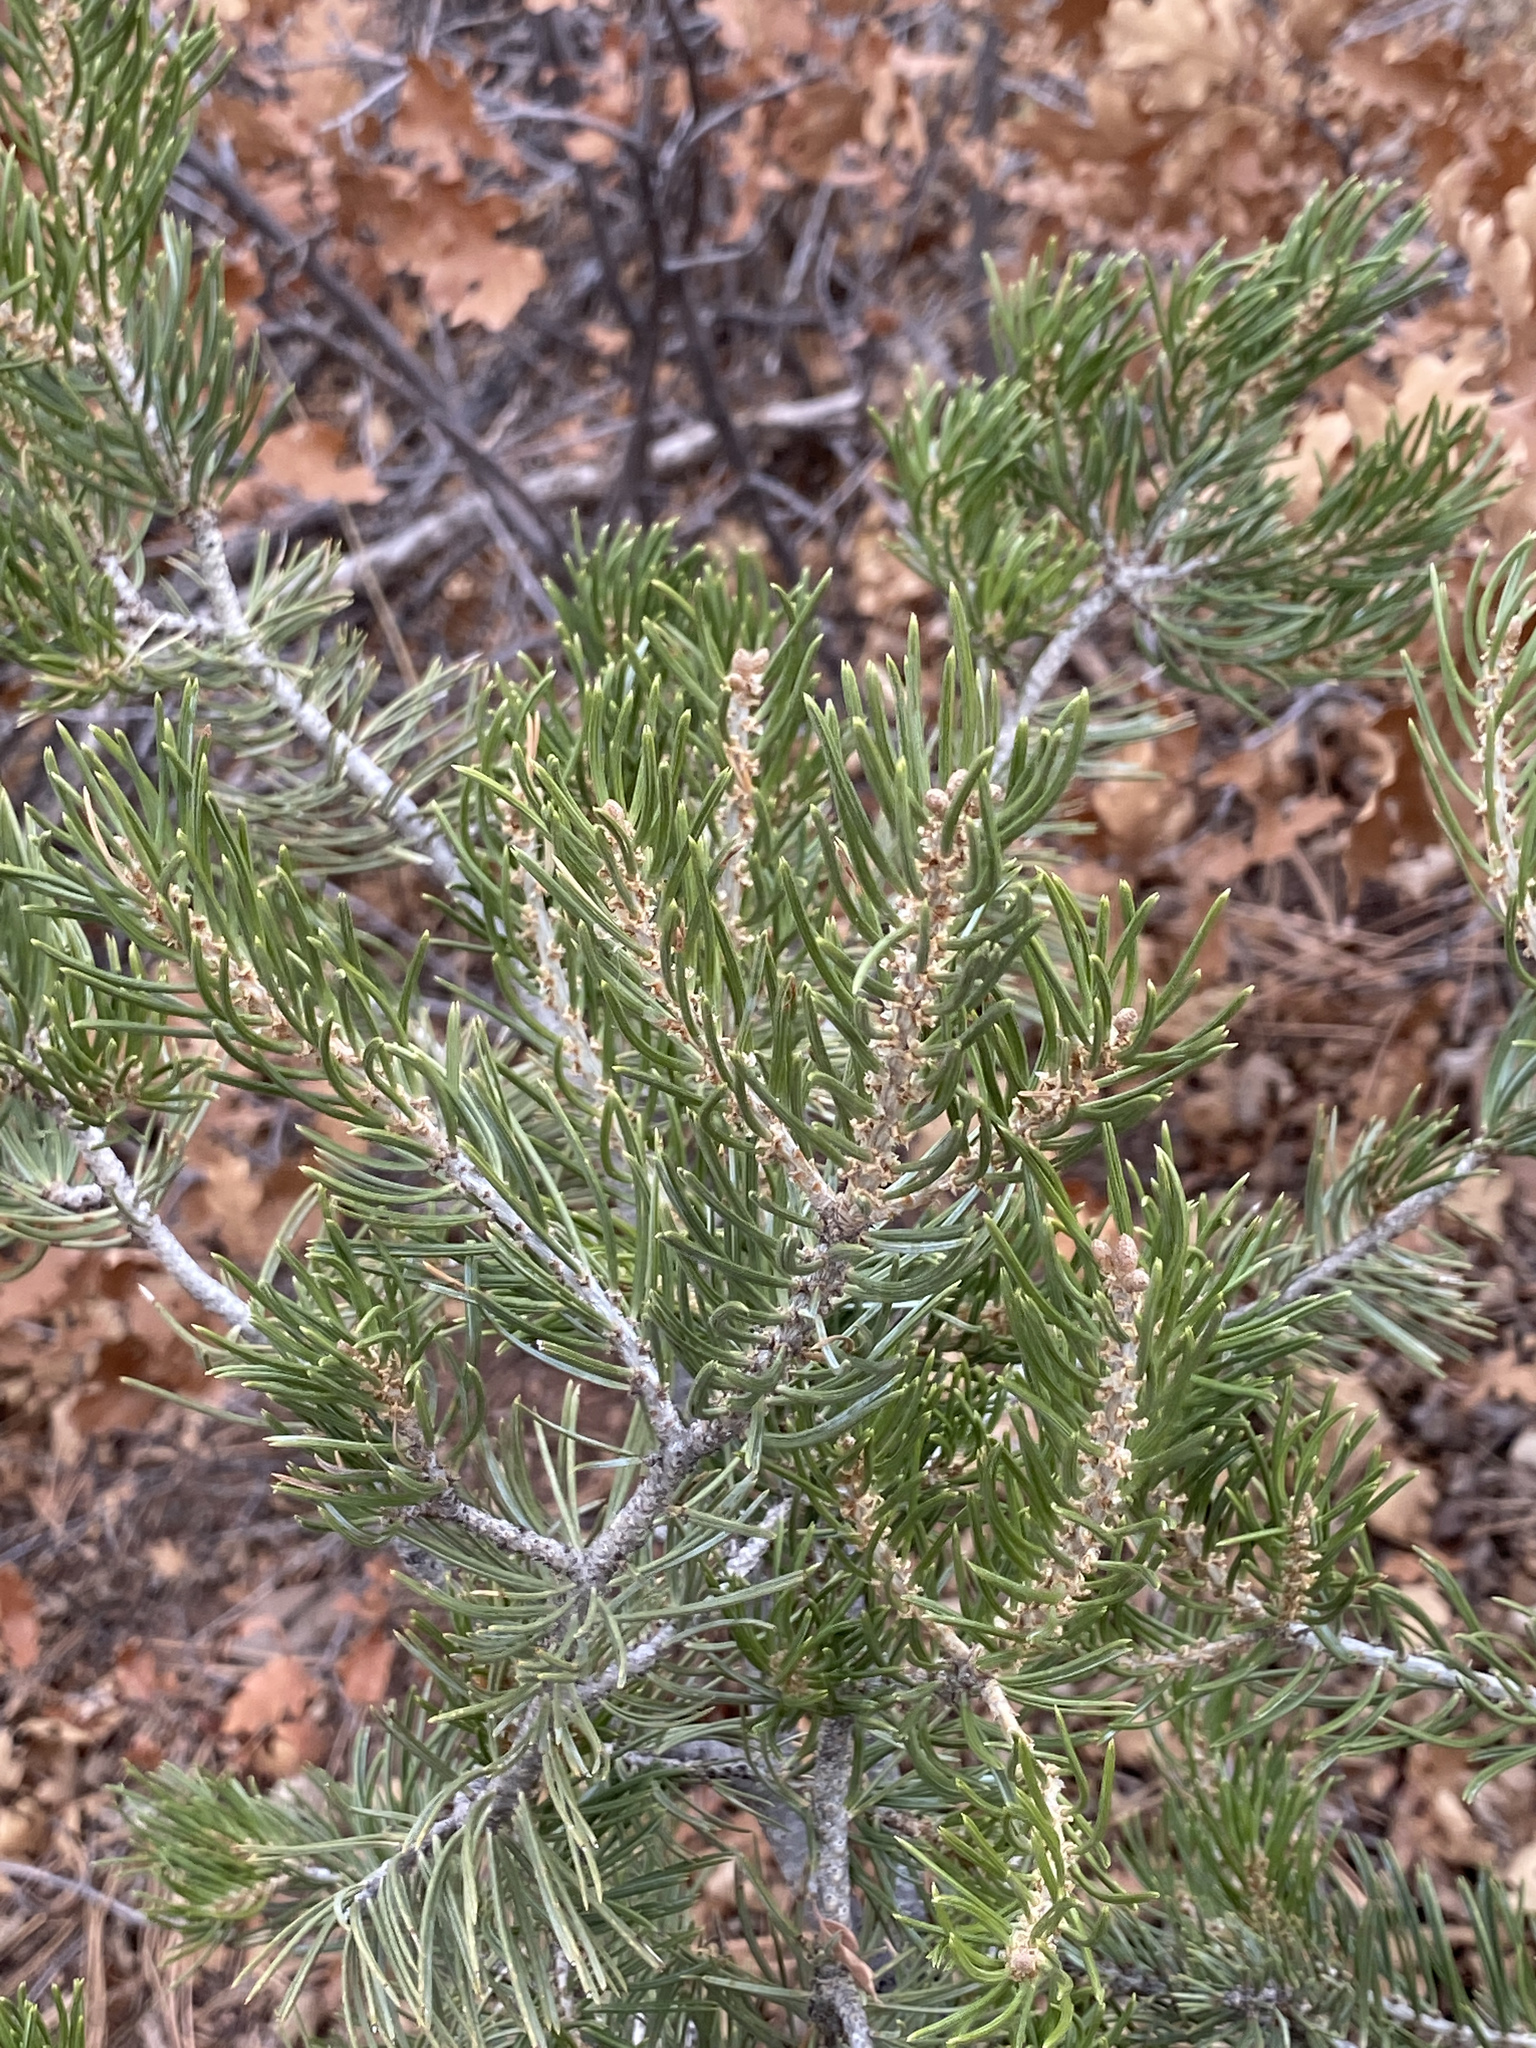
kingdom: Plantae
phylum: Tracheophyta
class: Pinopsida
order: Pinales
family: Pinaceae
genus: Pinus
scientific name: Pinus edulis
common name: Colorado pinyon
